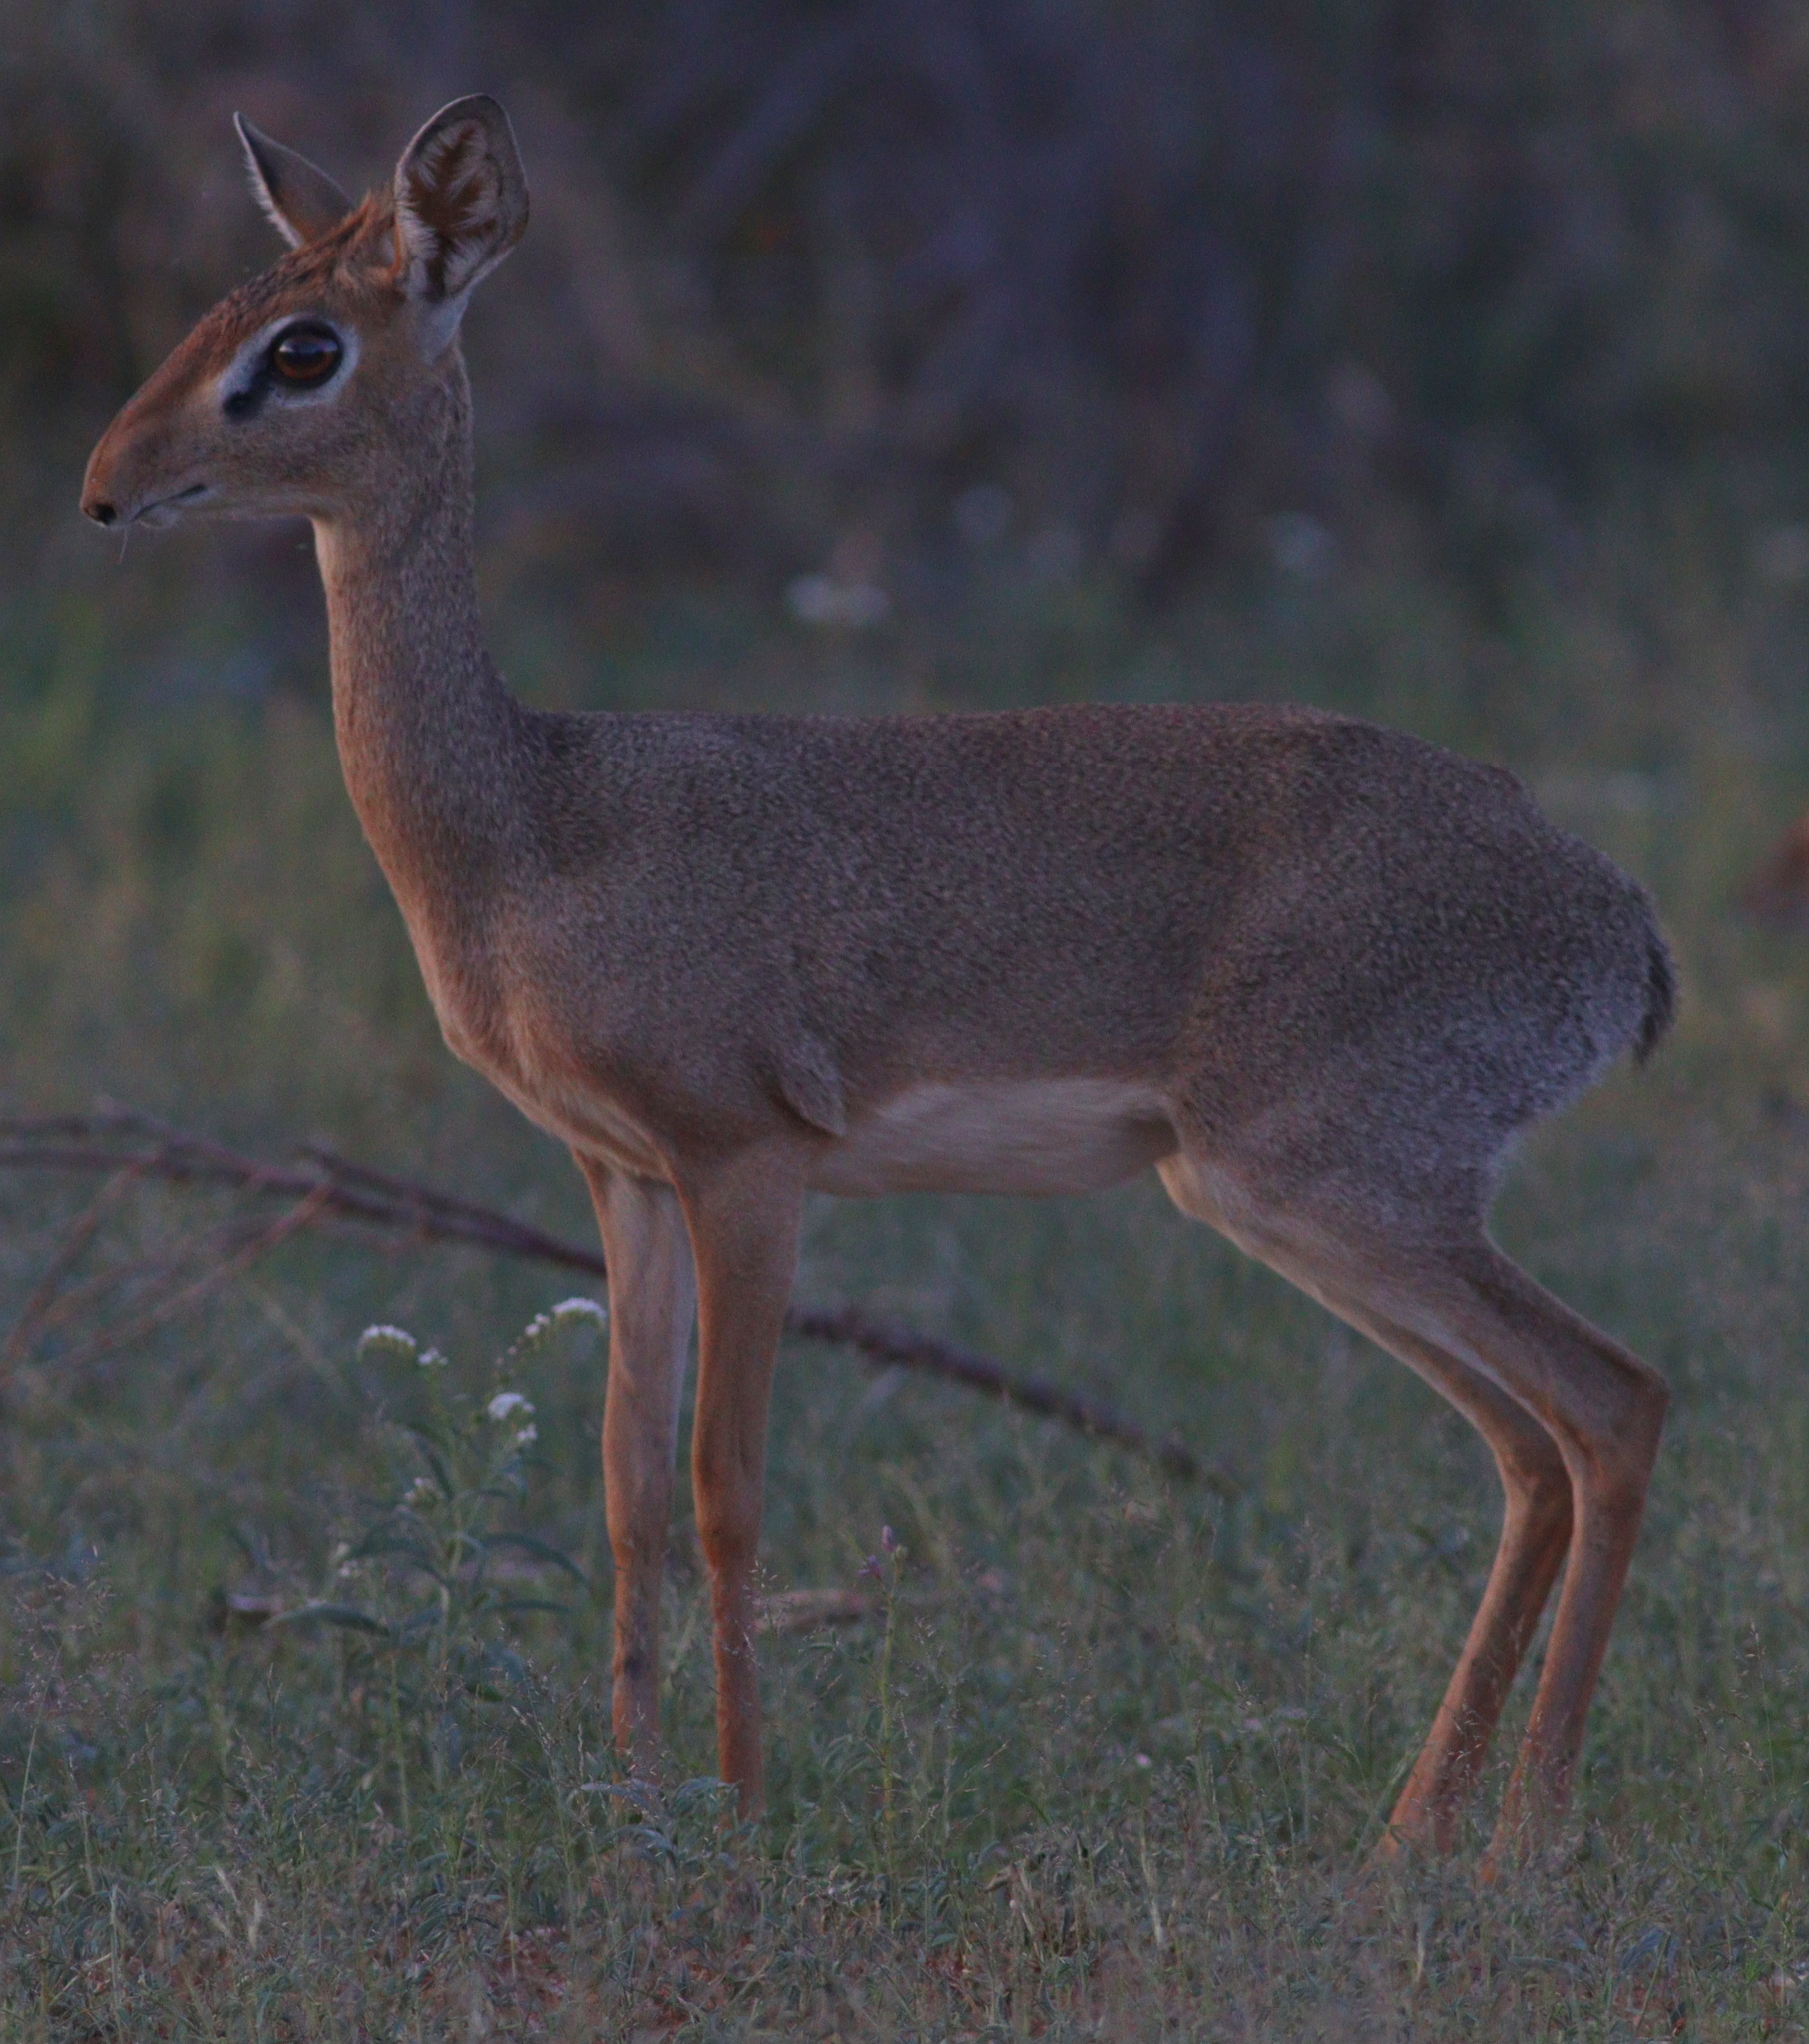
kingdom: Animalia
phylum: Chordata
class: Mammalia
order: Artiodactyla
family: Bovidae
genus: Madoqua
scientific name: Madoqua kirkii
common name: Kirk's dik-dik
